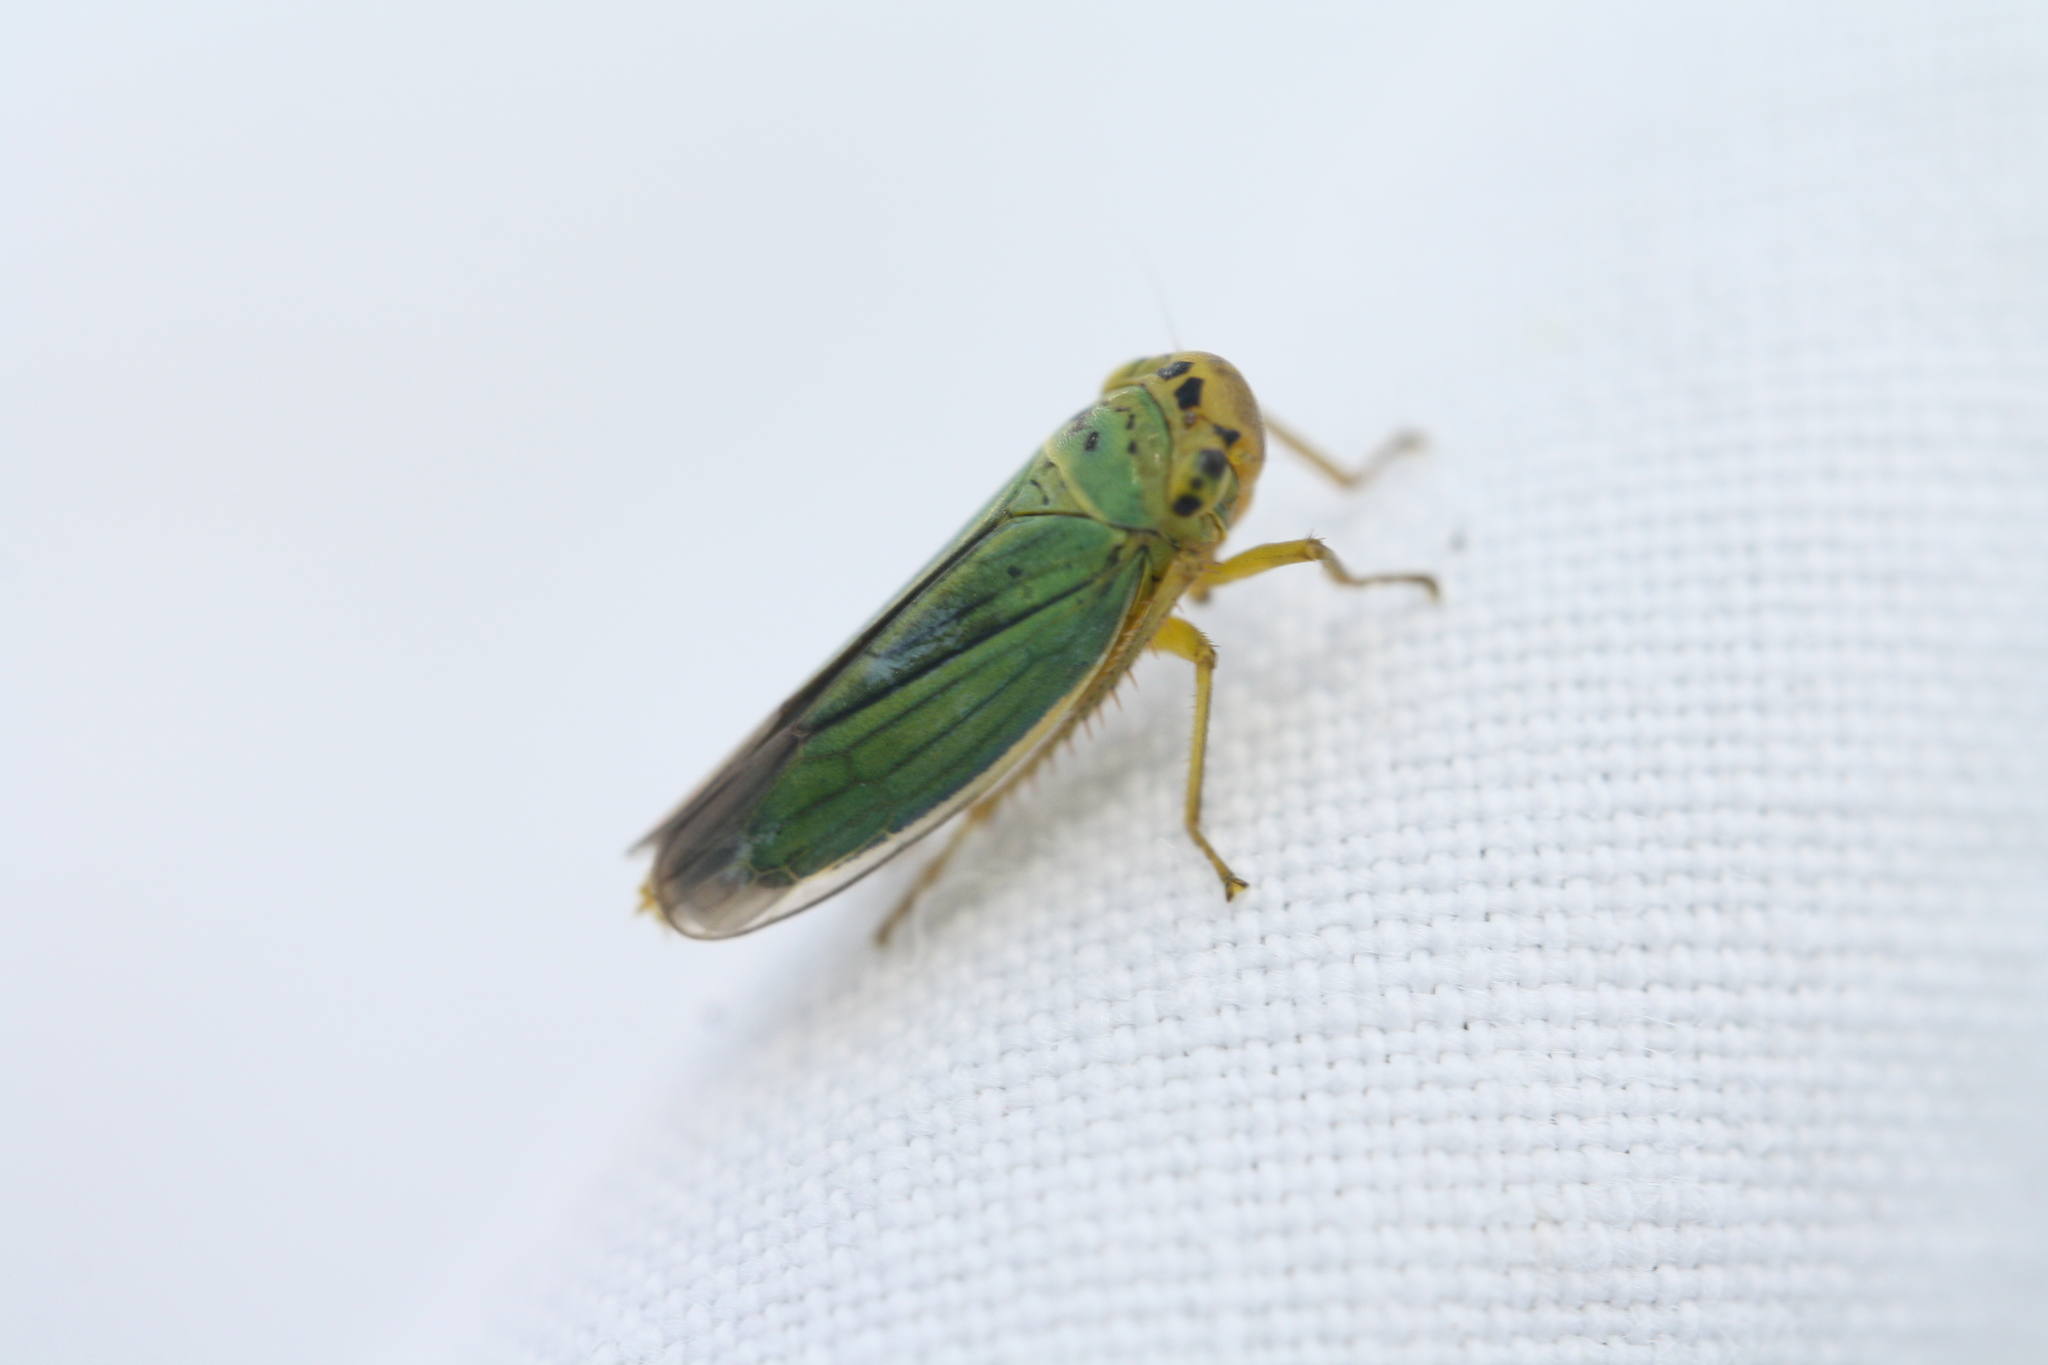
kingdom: Animalia
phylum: Arthropoda
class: Insecta
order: Hemiptera
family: Cicadellidae
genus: Cicadella
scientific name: Cicadella viridis
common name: Leafhopper
